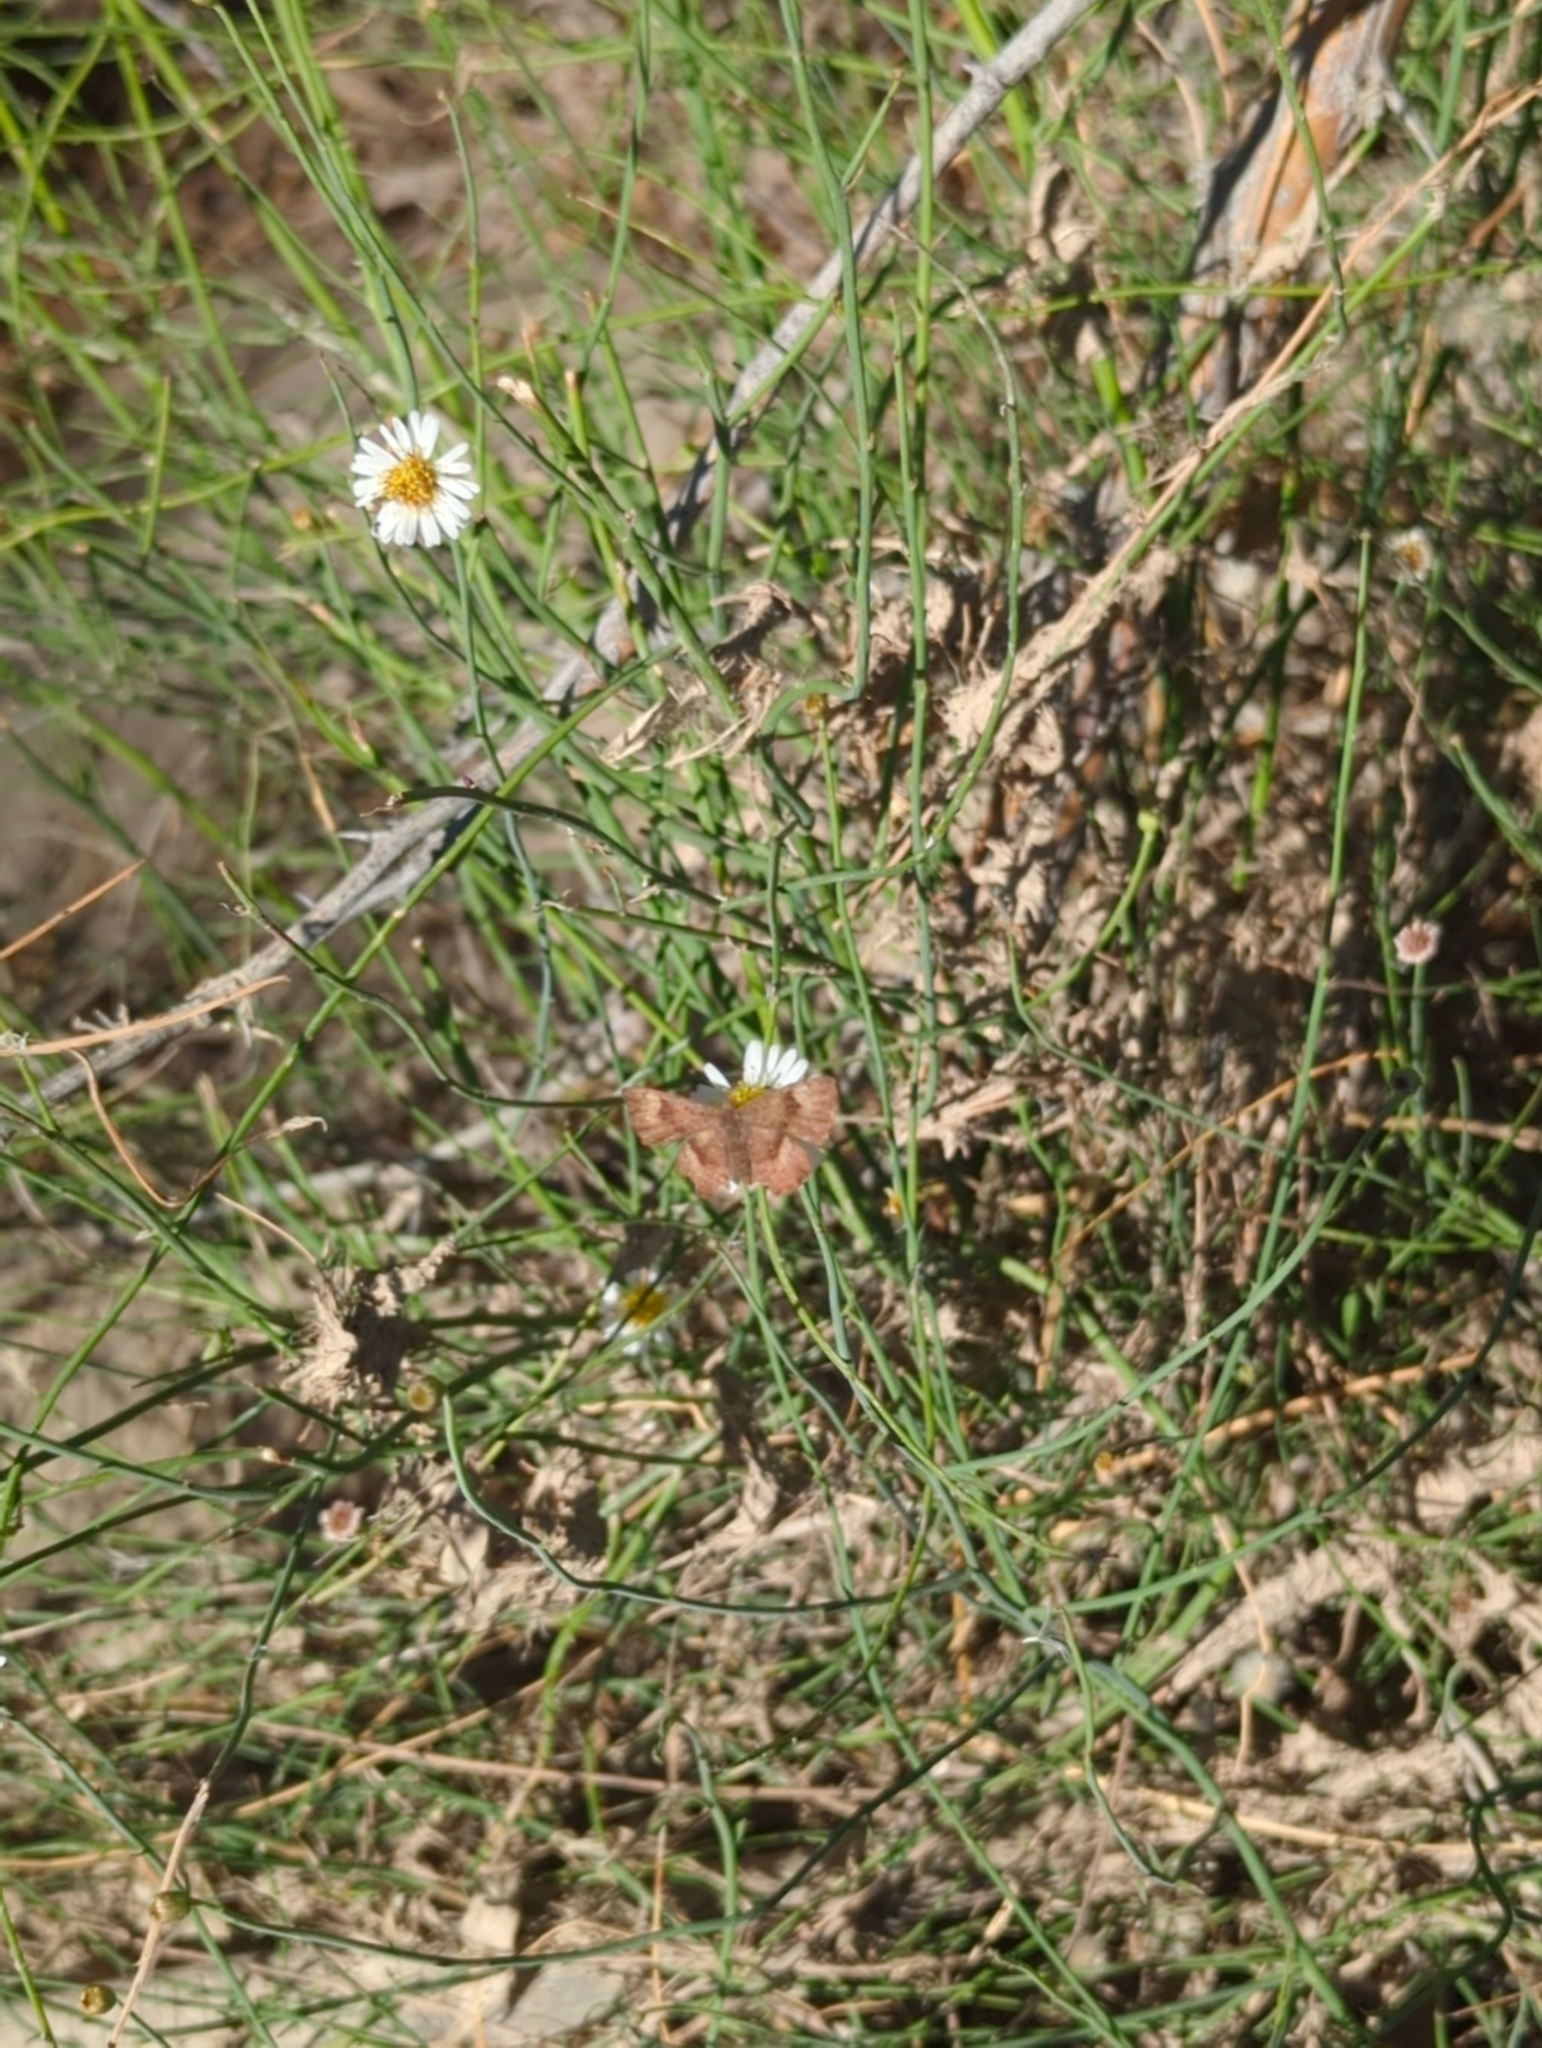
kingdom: Animalia
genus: Calephelis
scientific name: Calephelis nemesis
